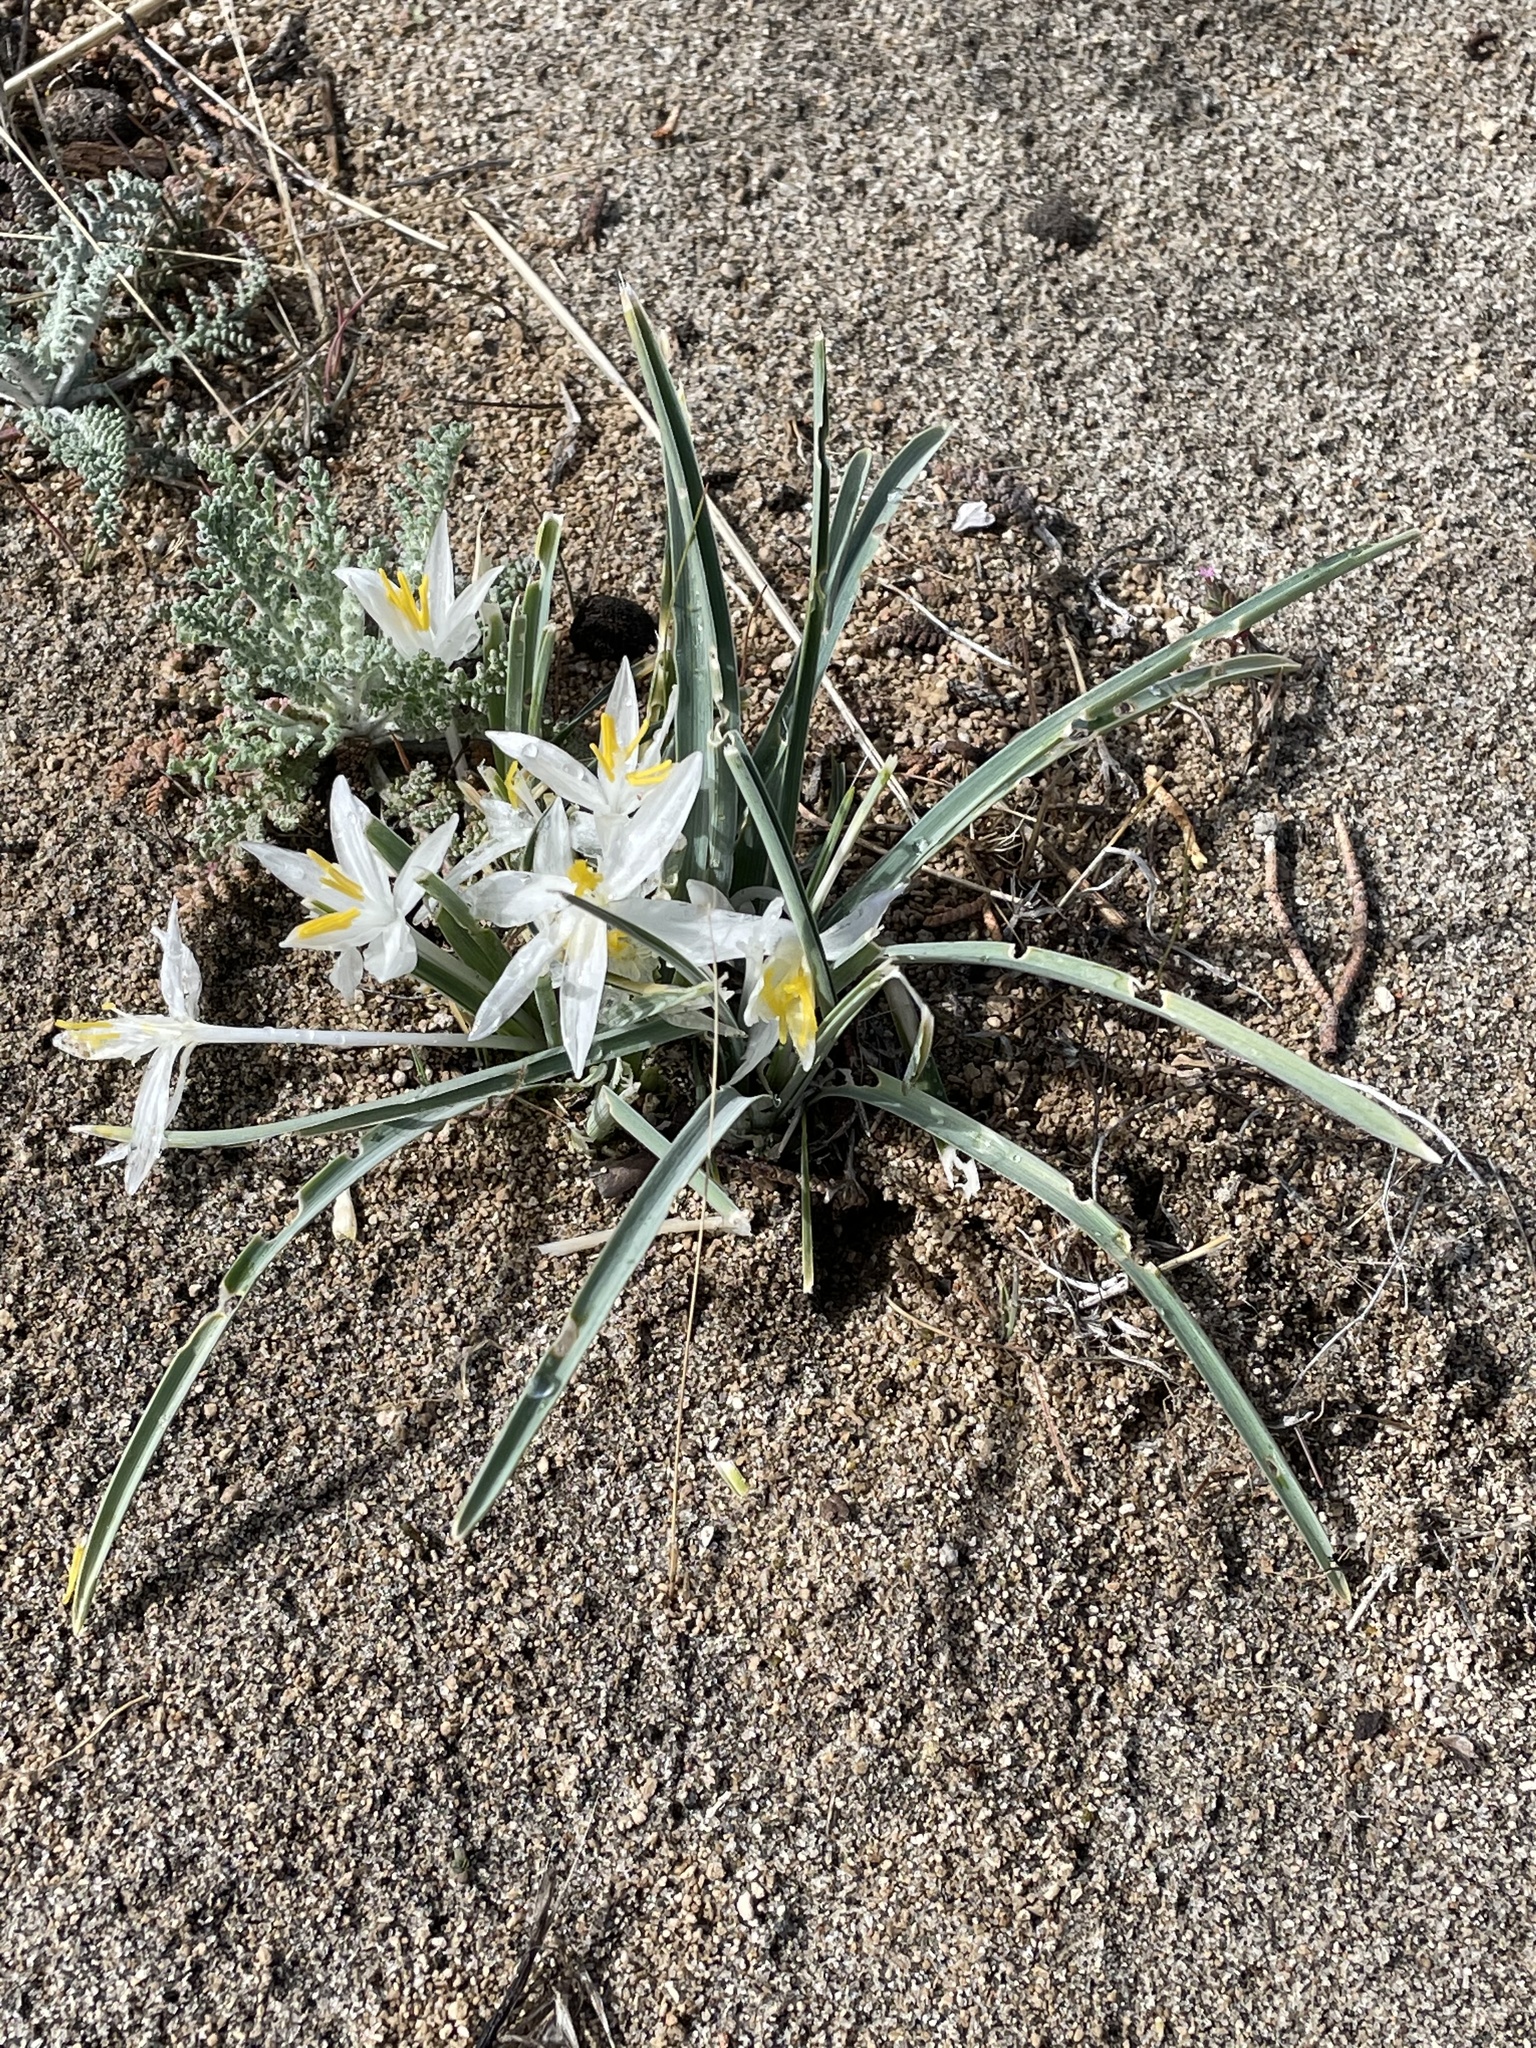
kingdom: Plantae
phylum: Tracheophyta
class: Liliopsida
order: Asparagales
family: Asparagaceae
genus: Leucocrinum
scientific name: Leucocrinum montanum
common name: Mountain-lily
